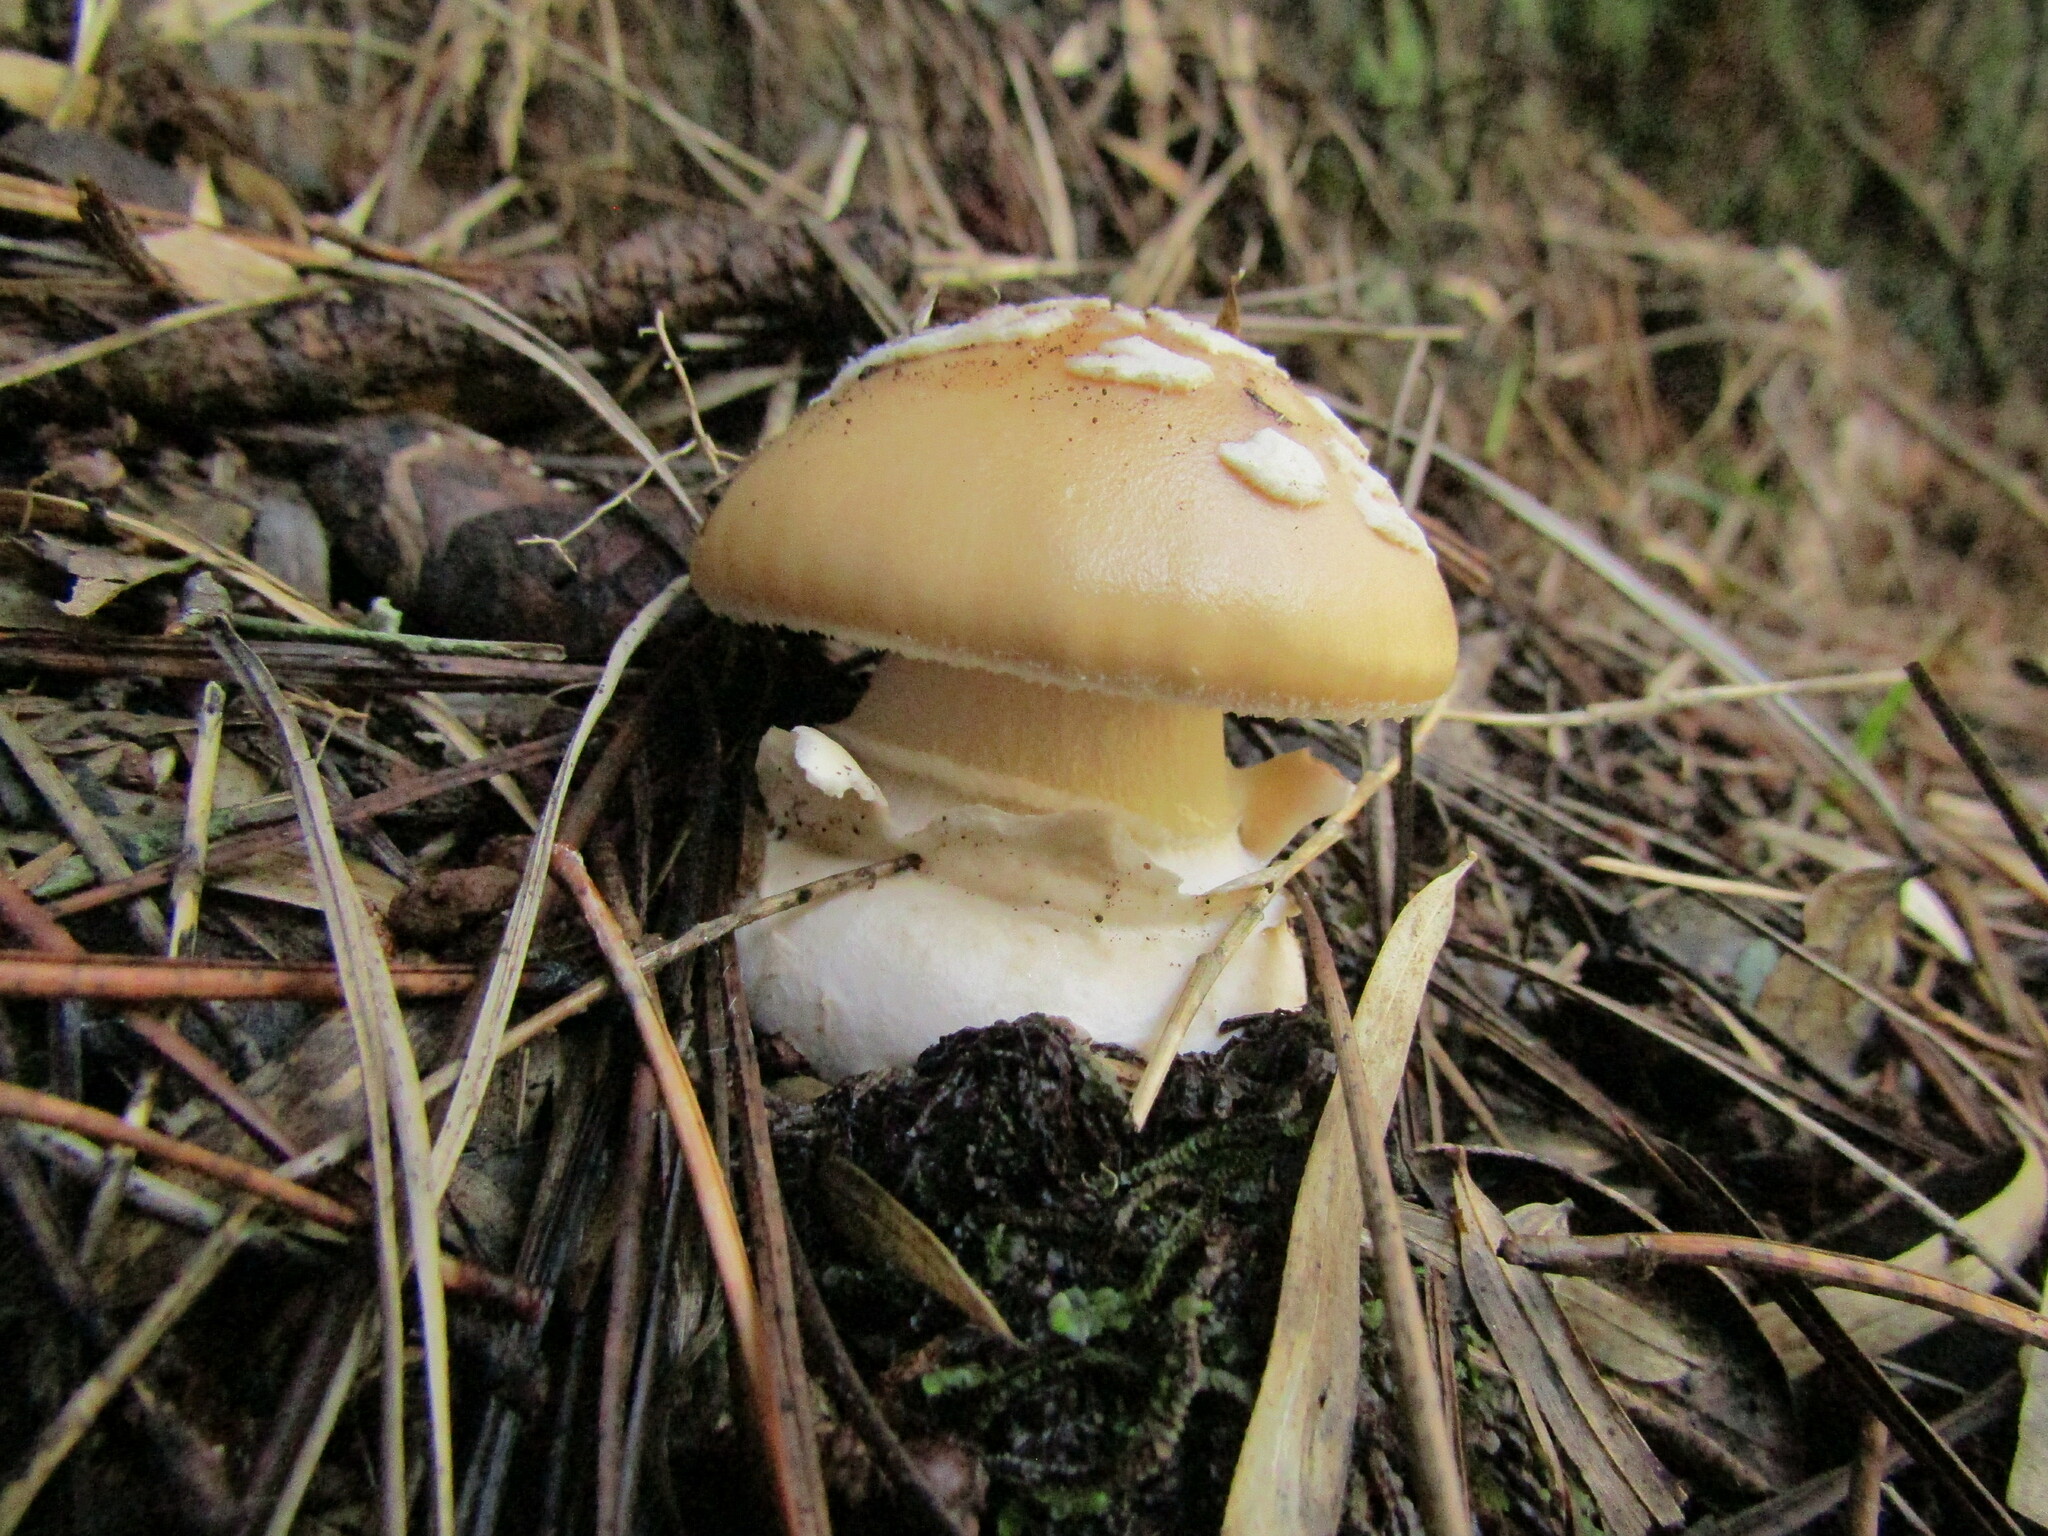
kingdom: Fungi
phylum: Basidiomycota
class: Agaricomycetes
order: Agaricales
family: Amanitaceae
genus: Amanita
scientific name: Amanita toxica
